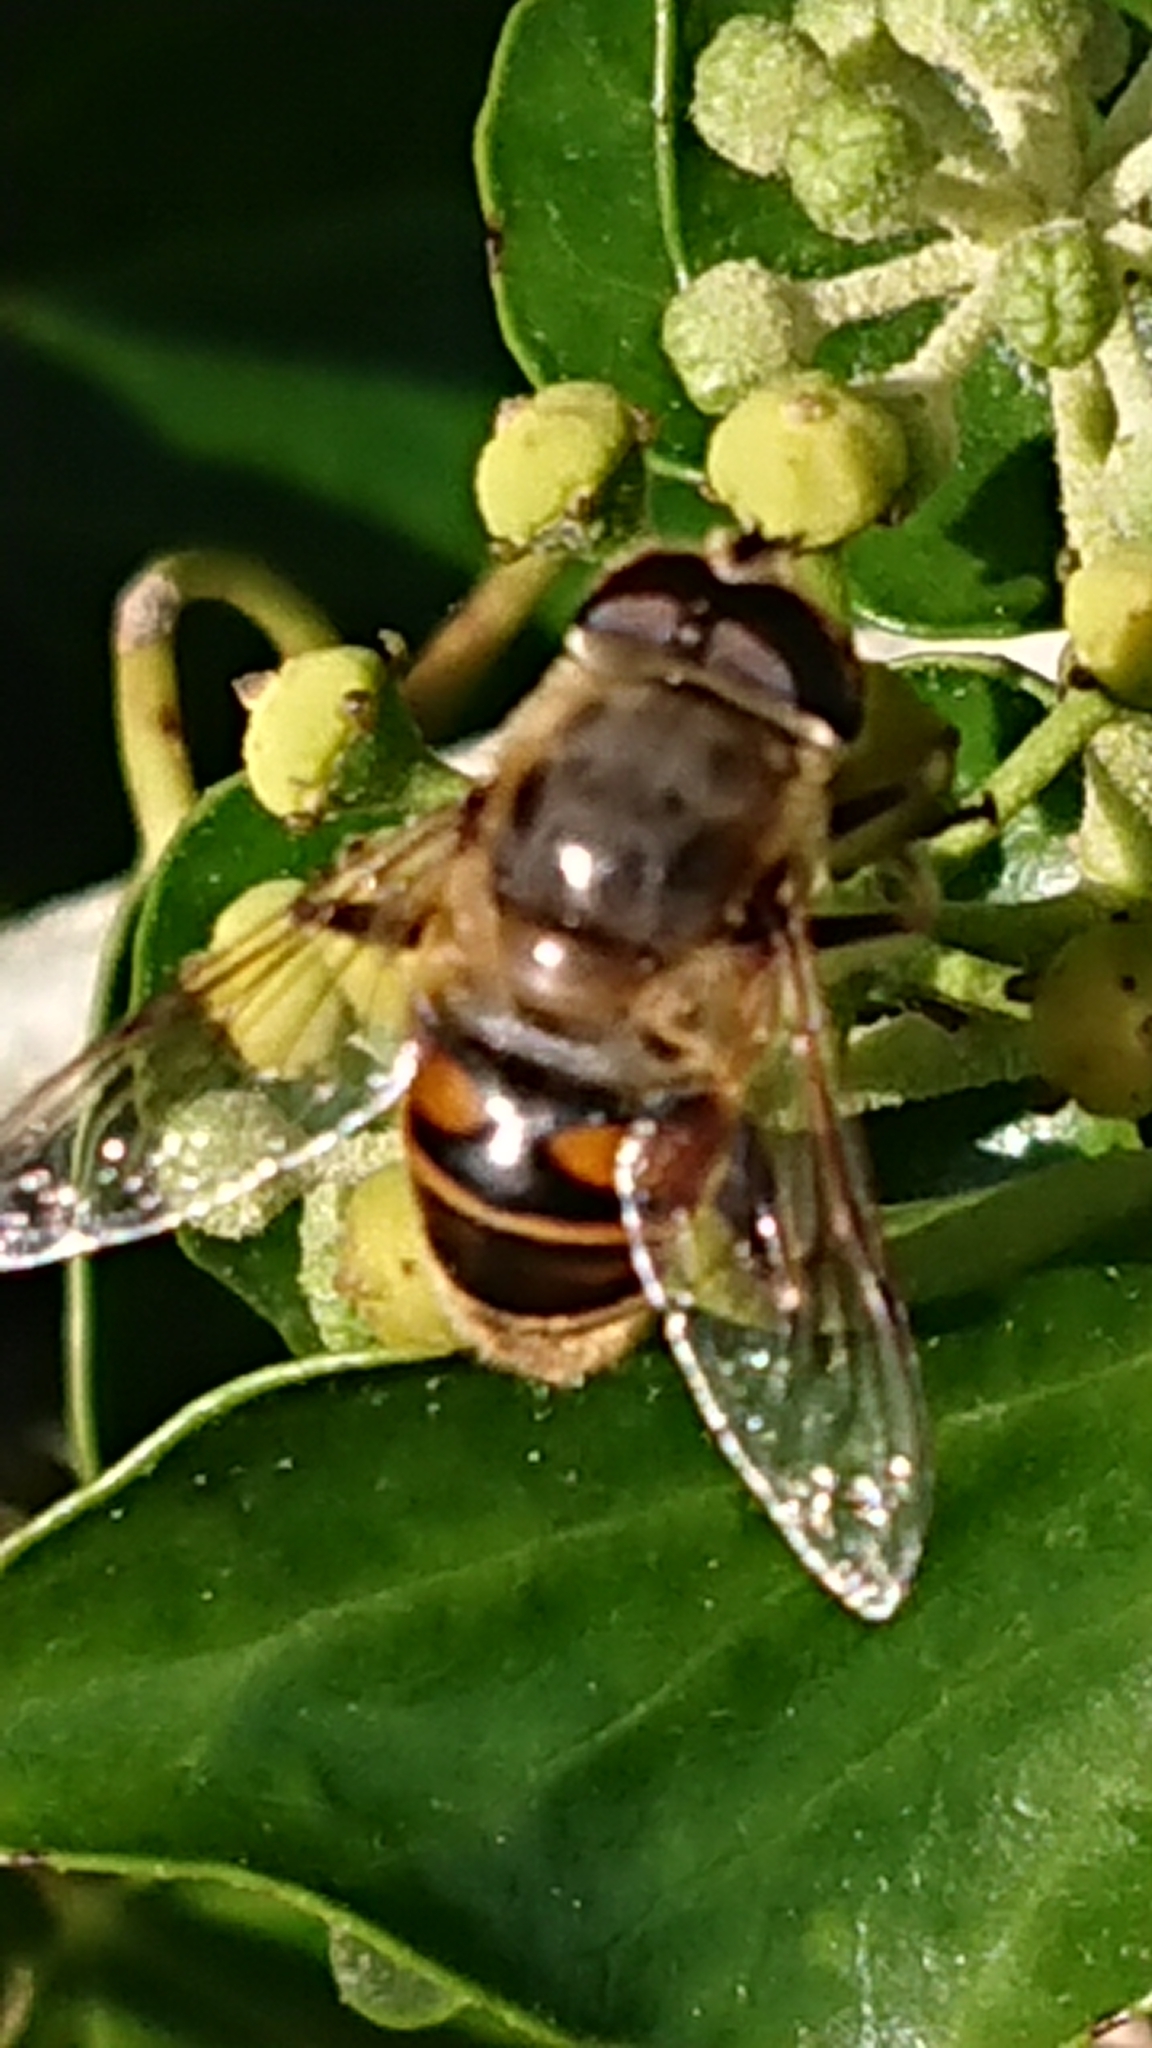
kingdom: Animalia
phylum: Arthropoda
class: Insecta
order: Diptera
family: Syrphidae
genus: Eristalis
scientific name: Eristalis tenax
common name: Drone fly
